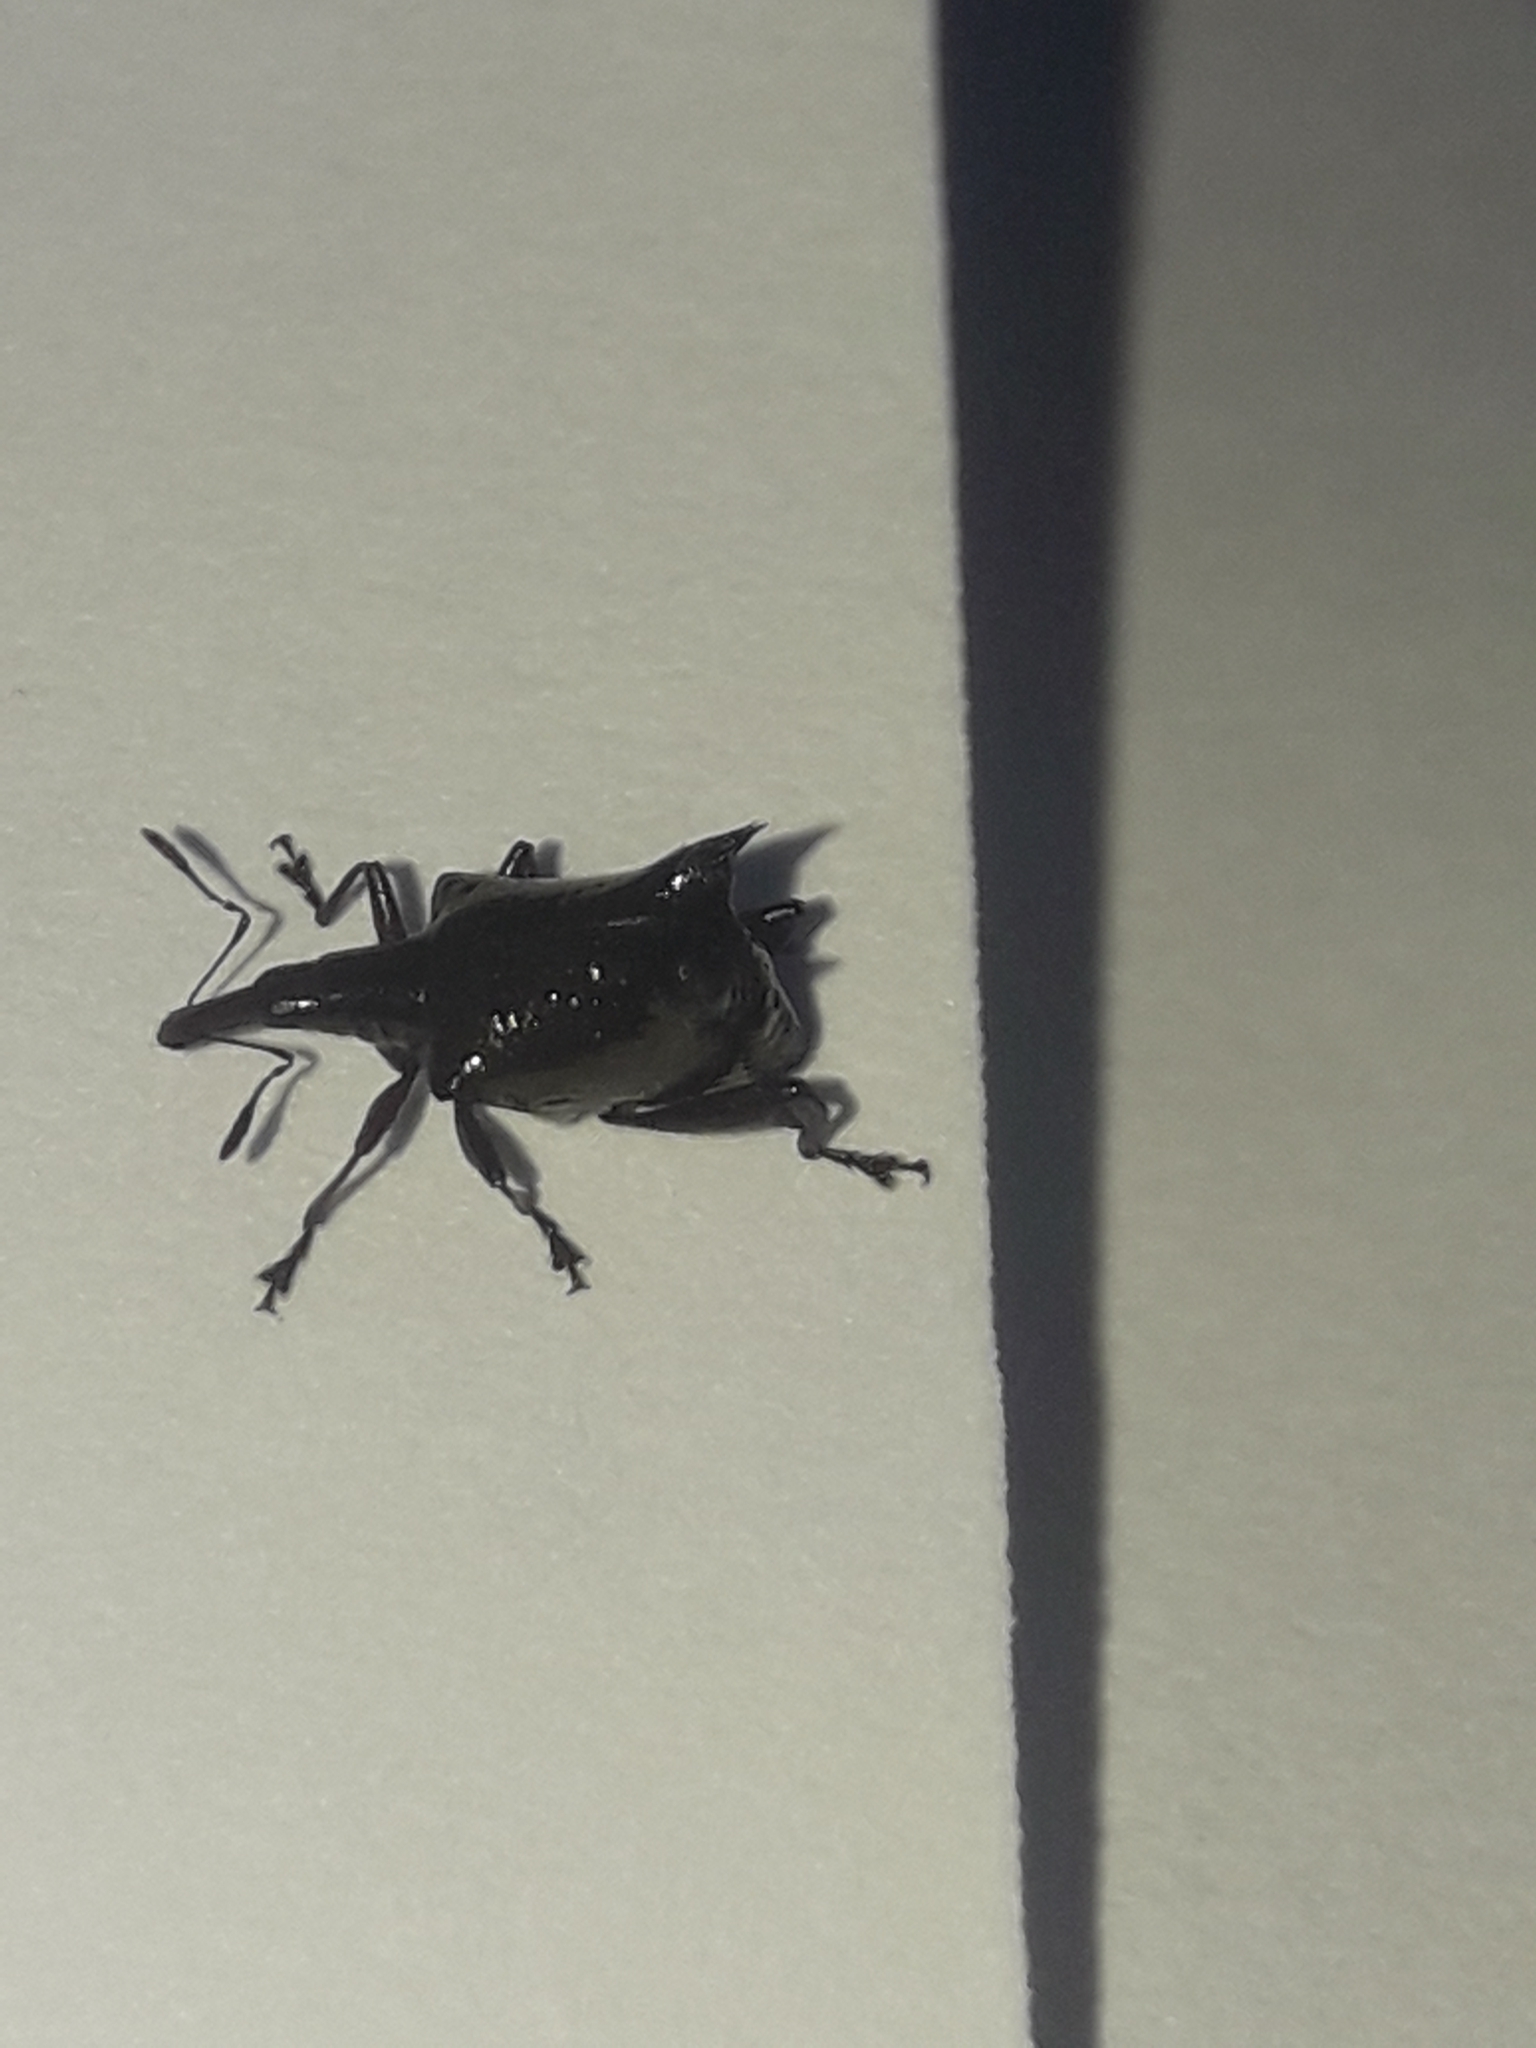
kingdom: Animalia
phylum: Arthropoda
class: Insecta
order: Coleoptera
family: Curculionidae
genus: Scolopterus
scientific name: Scolopterus aequus
